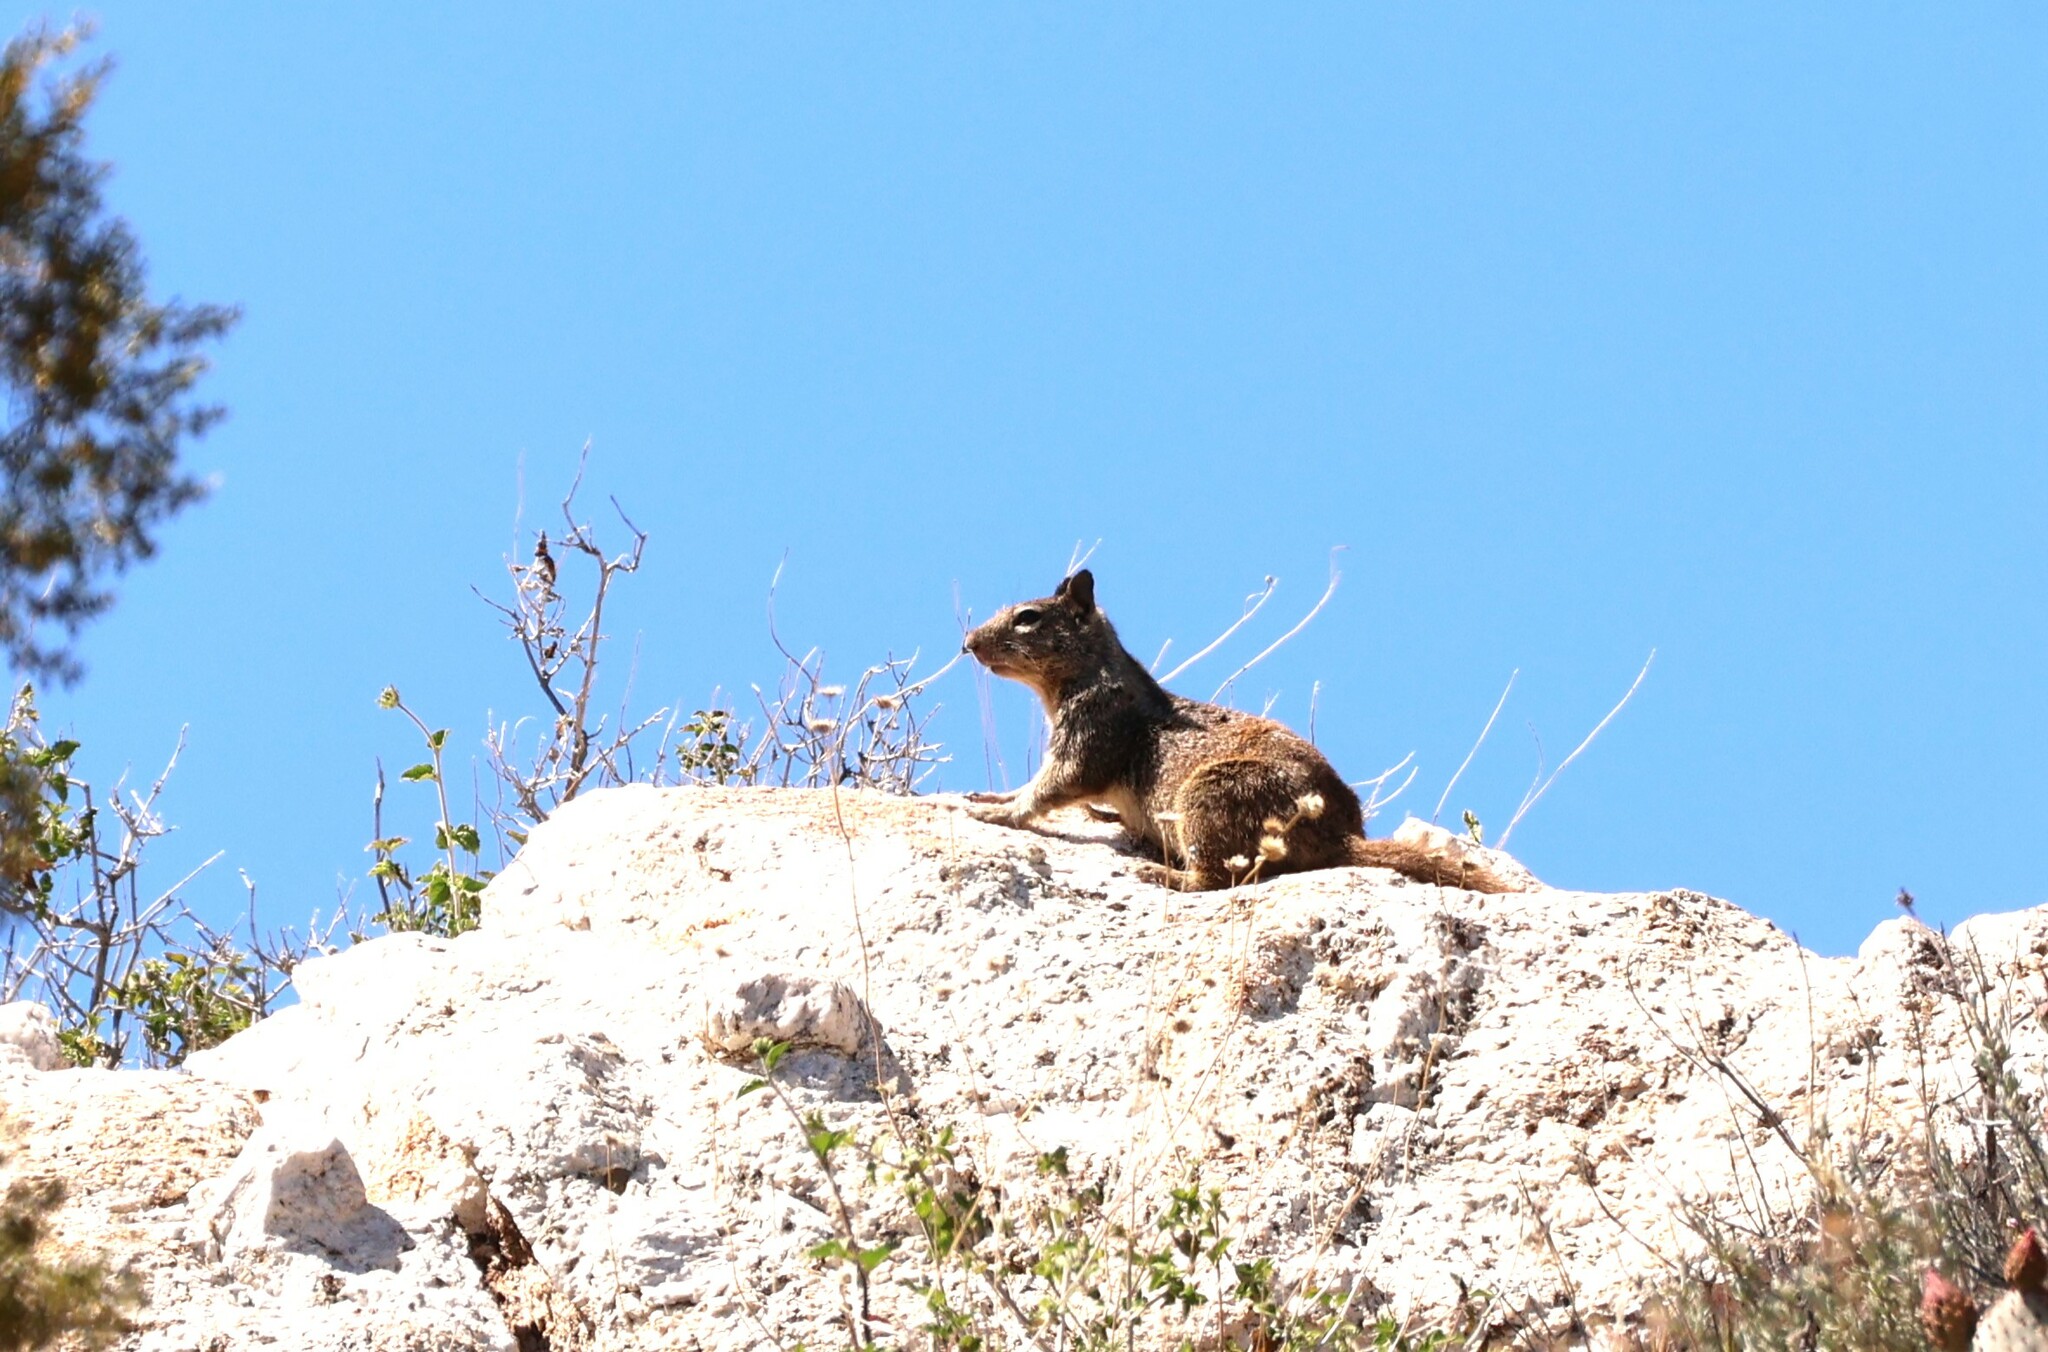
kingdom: Animalia
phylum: Chordata
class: Mammalia
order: Rodentia
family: Sciuridae
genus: Otospermophilus
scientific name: Otospermophilus beecheyi
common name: California ground squirrel
